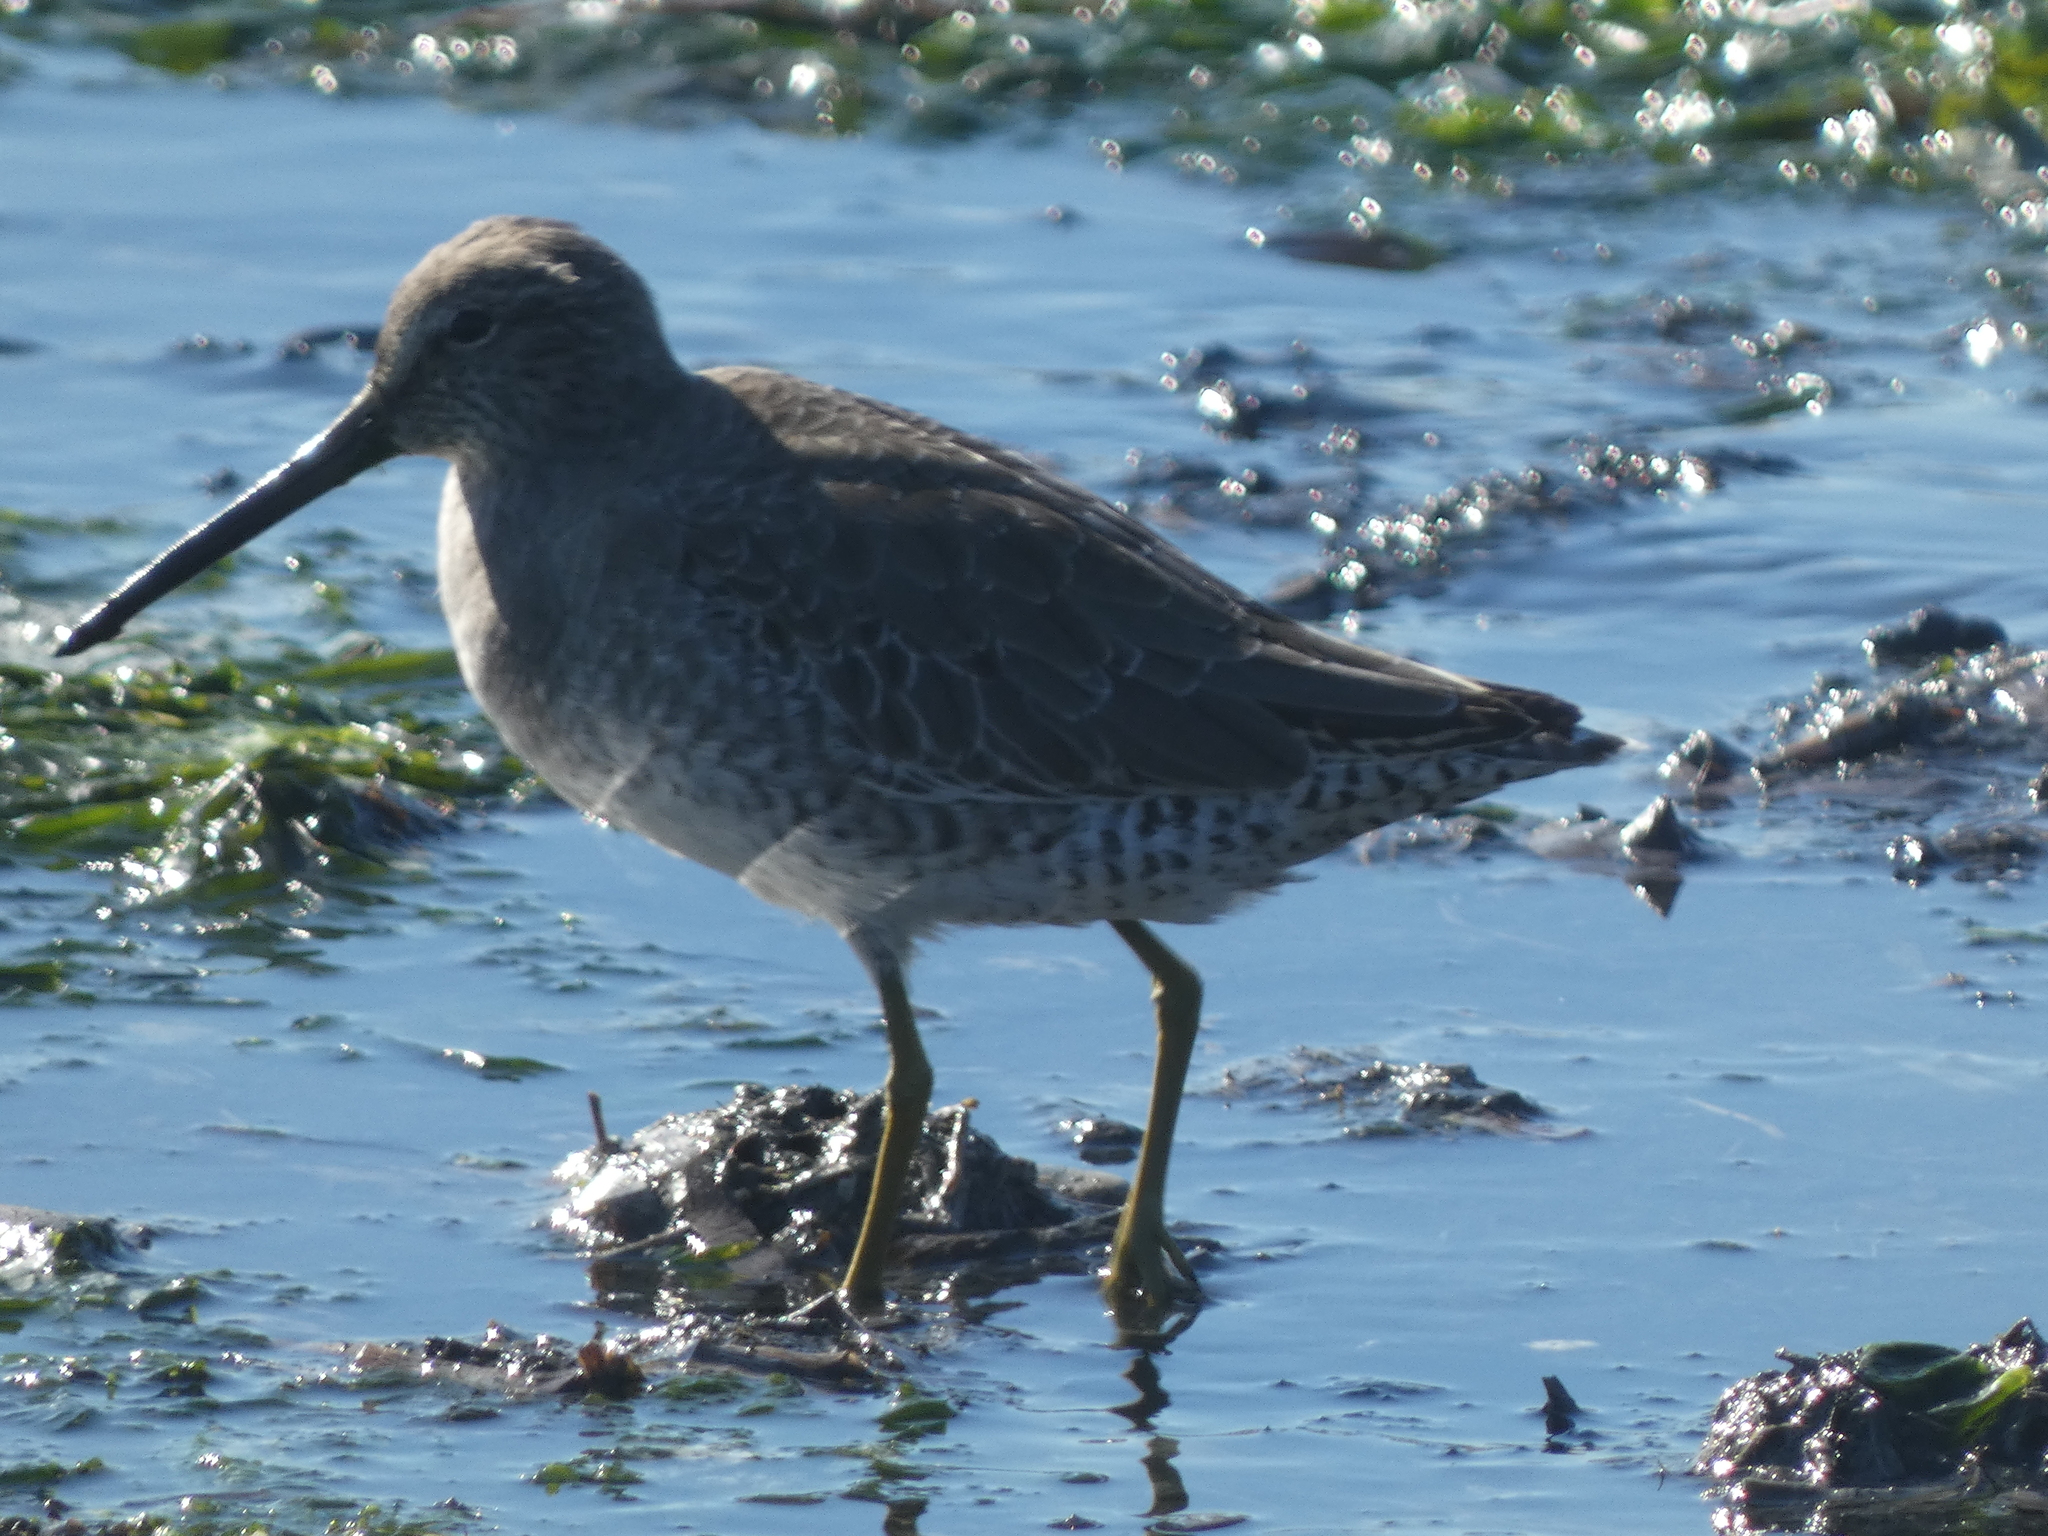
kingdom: Animalia
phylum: Chordata
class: Aves
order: Charadriiformes
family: Scolopacidae
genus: Limnodromus
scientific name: Limnodromus griseus
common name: Short-billed dowitcher
